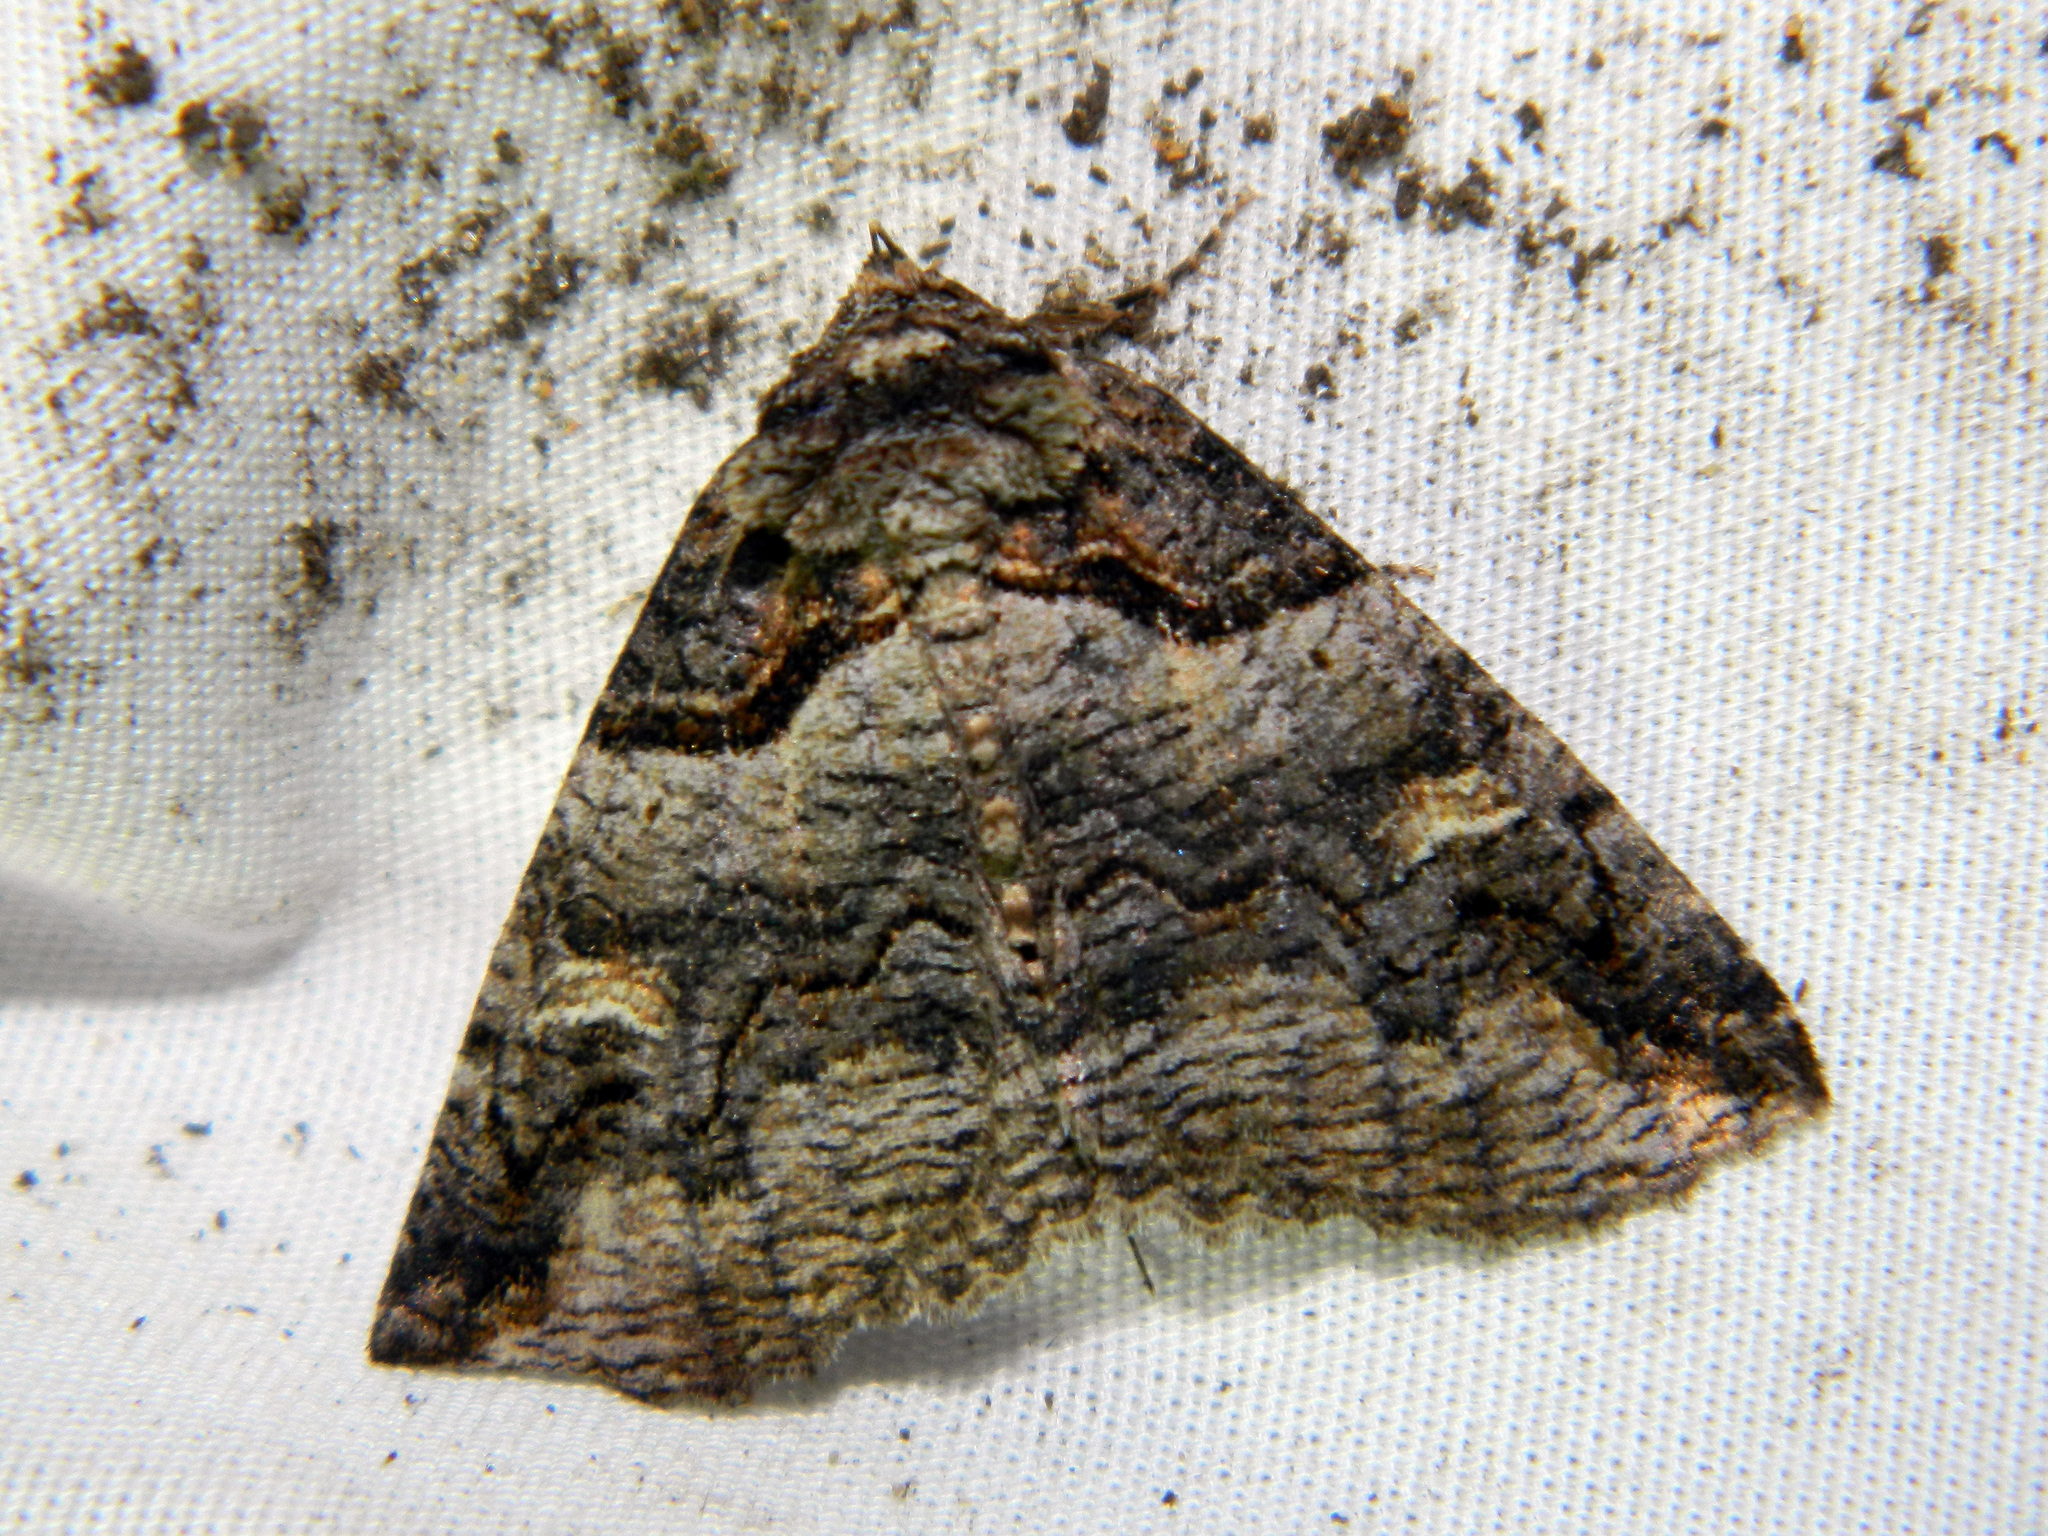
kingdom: Animalia
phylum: Arthropoda
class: Insecta
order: Lepidoptera
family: Erebidae
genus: Zale
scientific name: Zale intenta
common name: Intent zale moth
